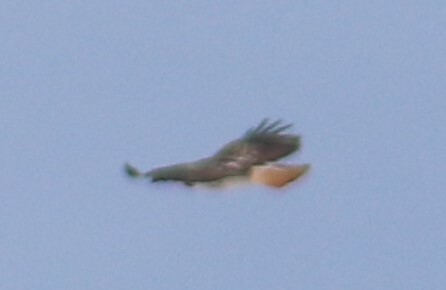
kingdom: Animalia
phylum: Chordata
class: Aves
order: Accipitriformes
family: Accipitridae
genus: Buteo
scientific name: Buteo jamaicensis
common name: Red-tailed hawk
